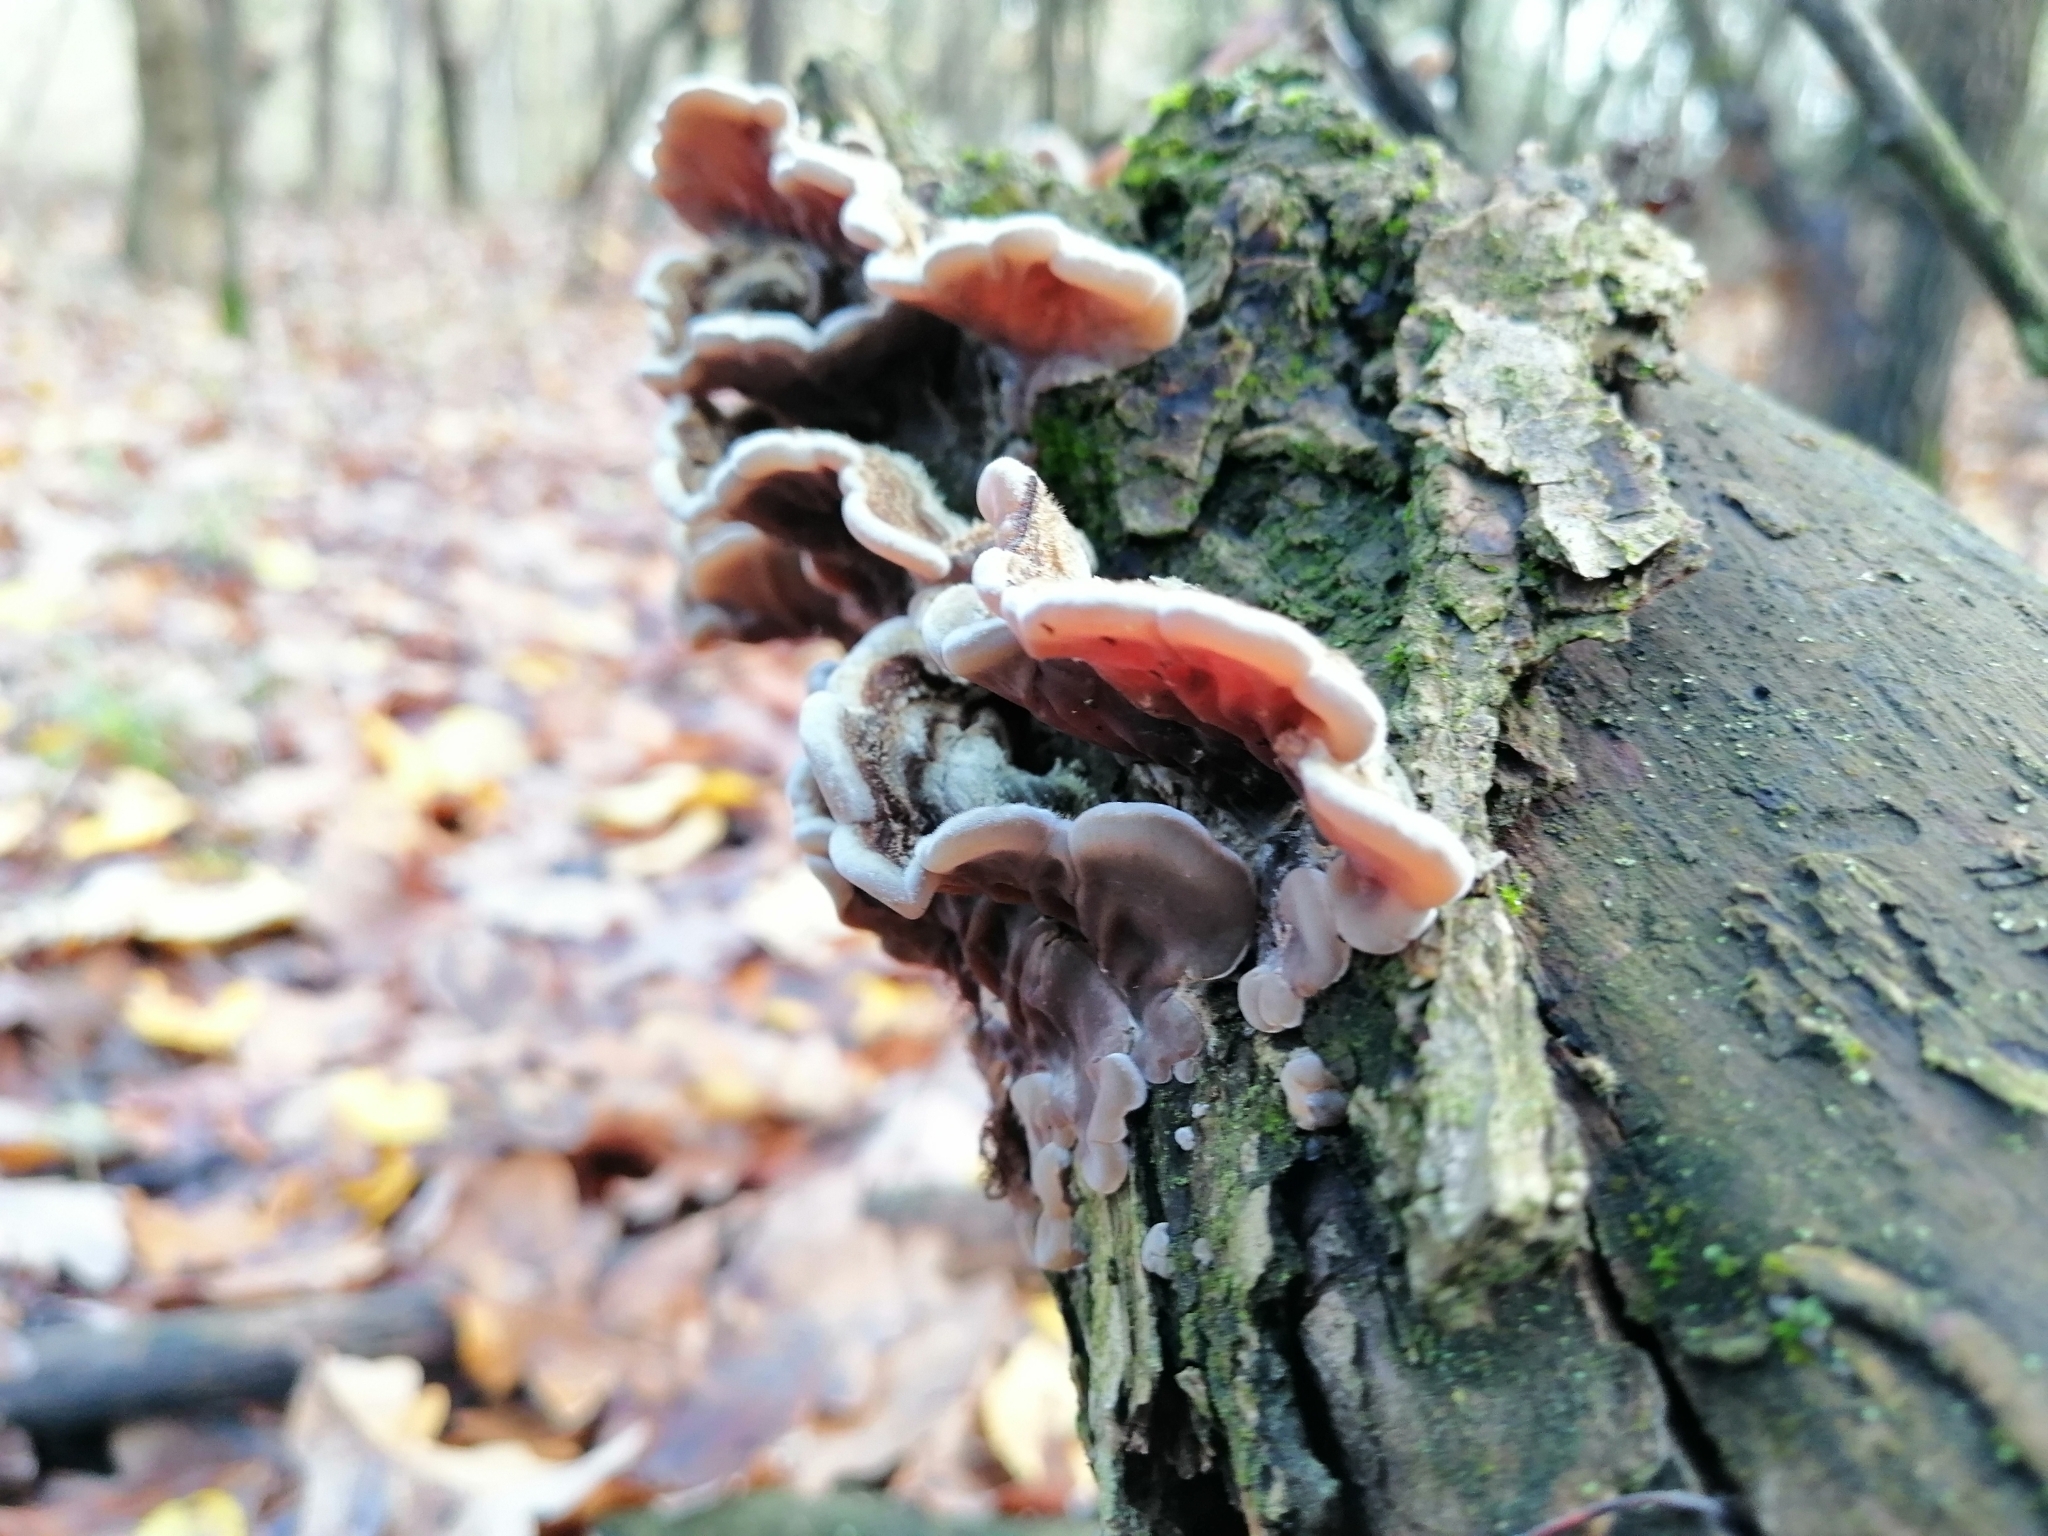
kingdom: Fungi
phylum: Basidiomycota
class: Agaricomycetes
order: Auriculariales
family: Auriculariaceae
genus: Auricularia
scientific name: Auricularia mesenterica
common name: Tripe fungus
